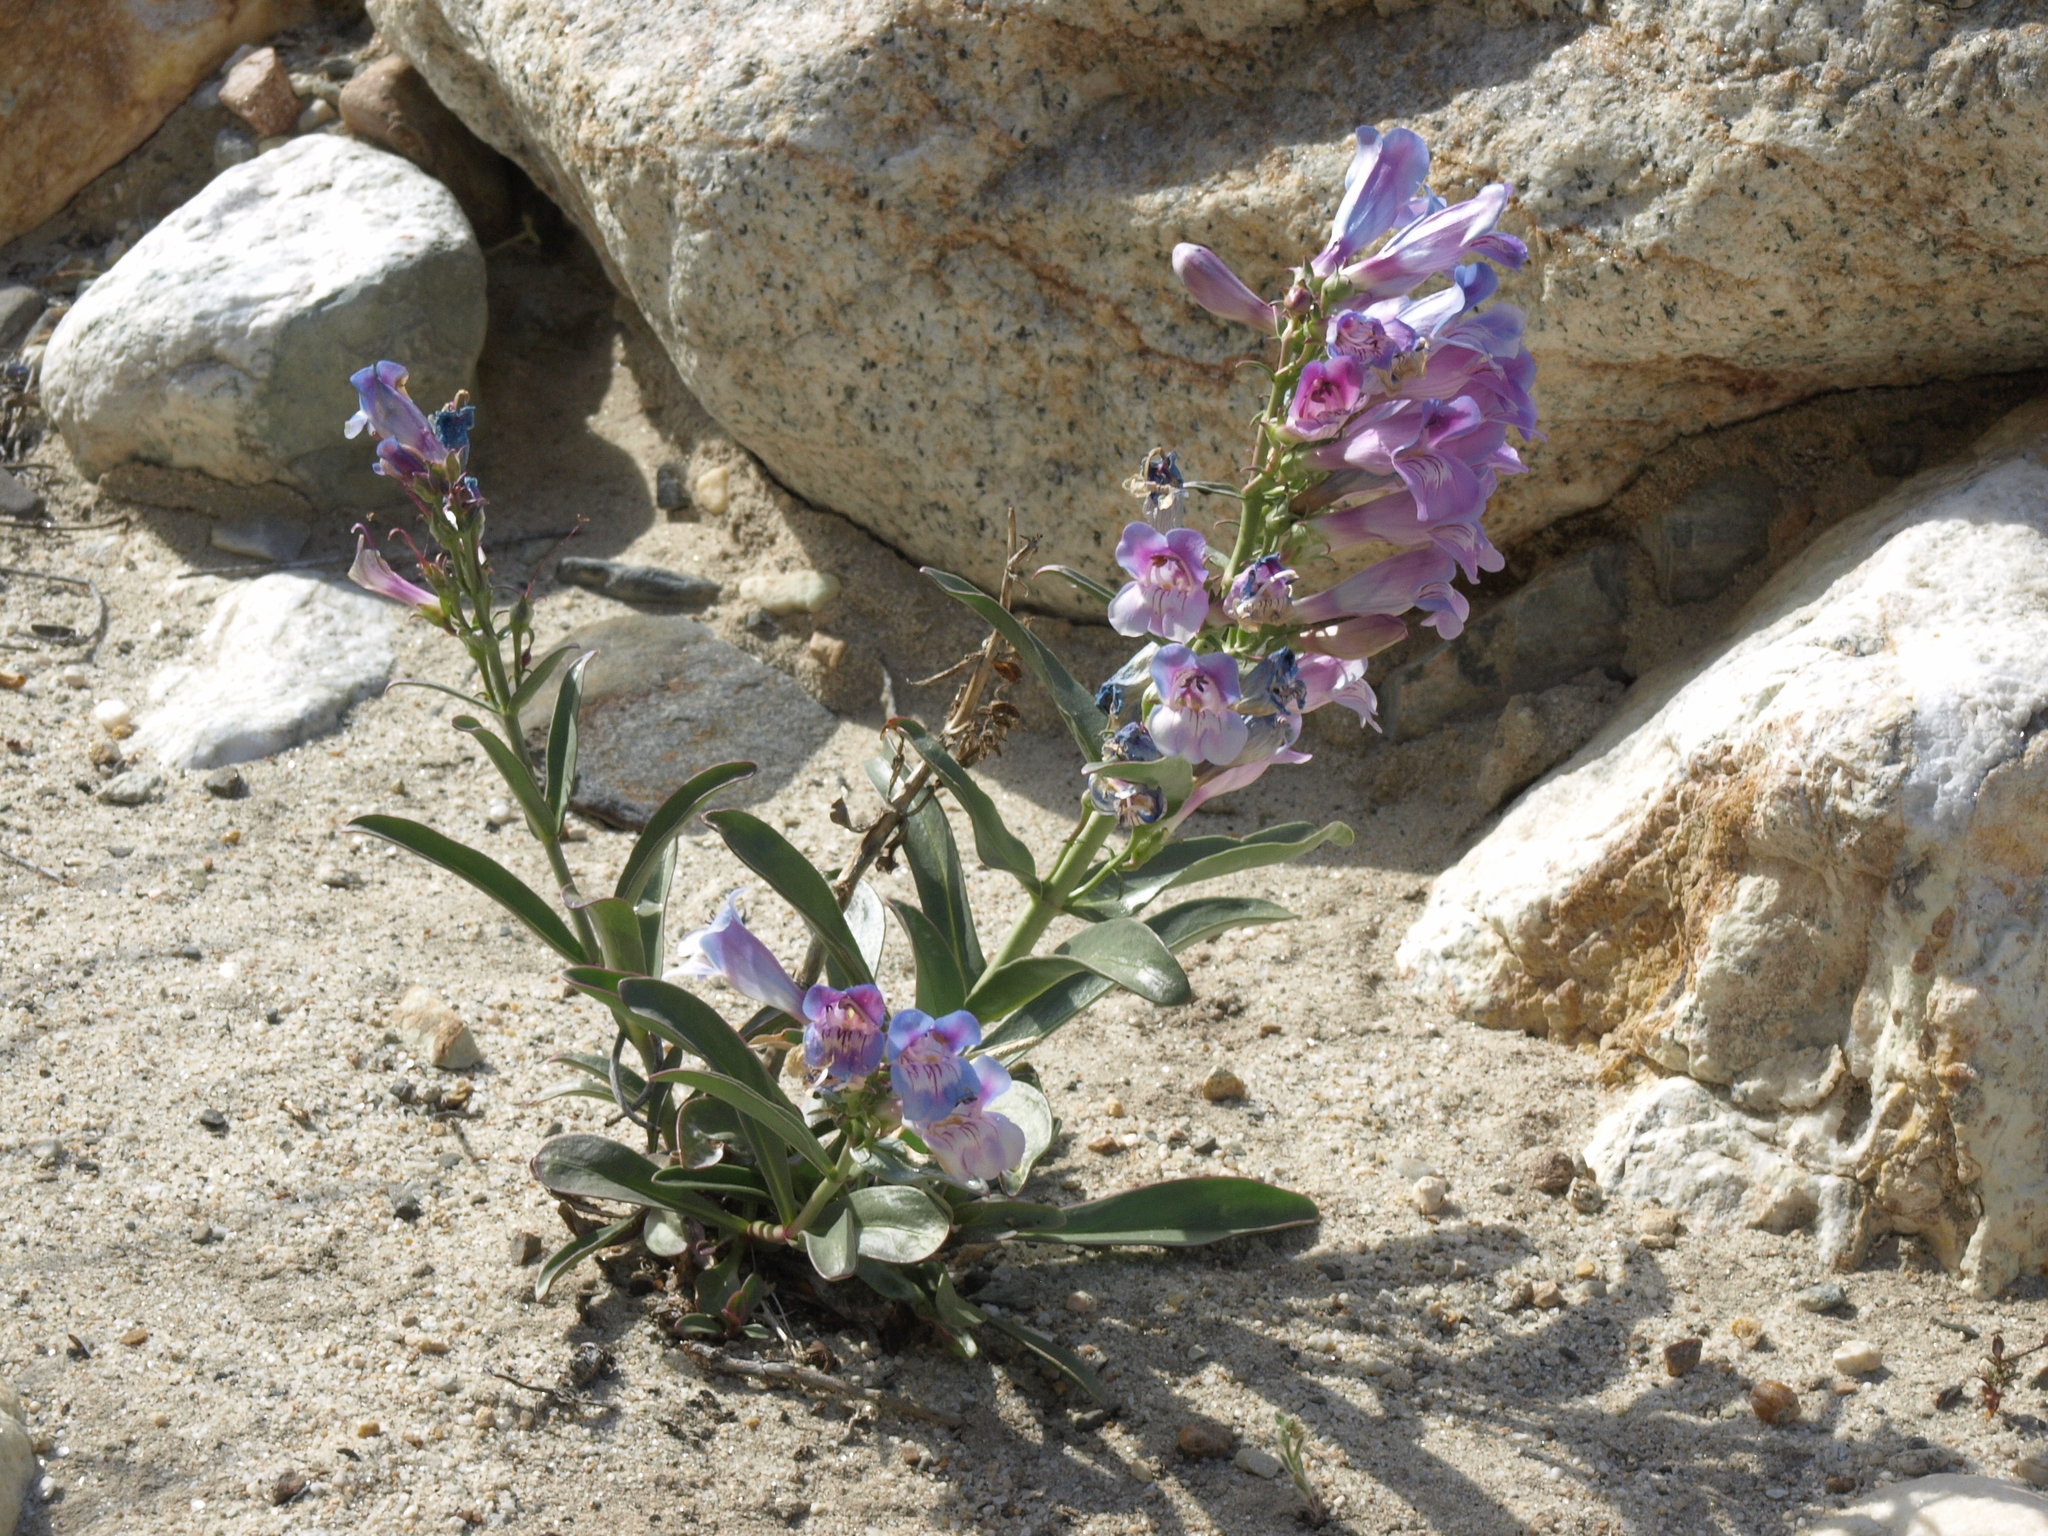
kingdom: Plantae
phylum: Tracheophyta
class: Magnoliopsida
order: Lamiales
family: Plantaginaceae
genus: Penstemon
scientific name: Penstemon speciosus
